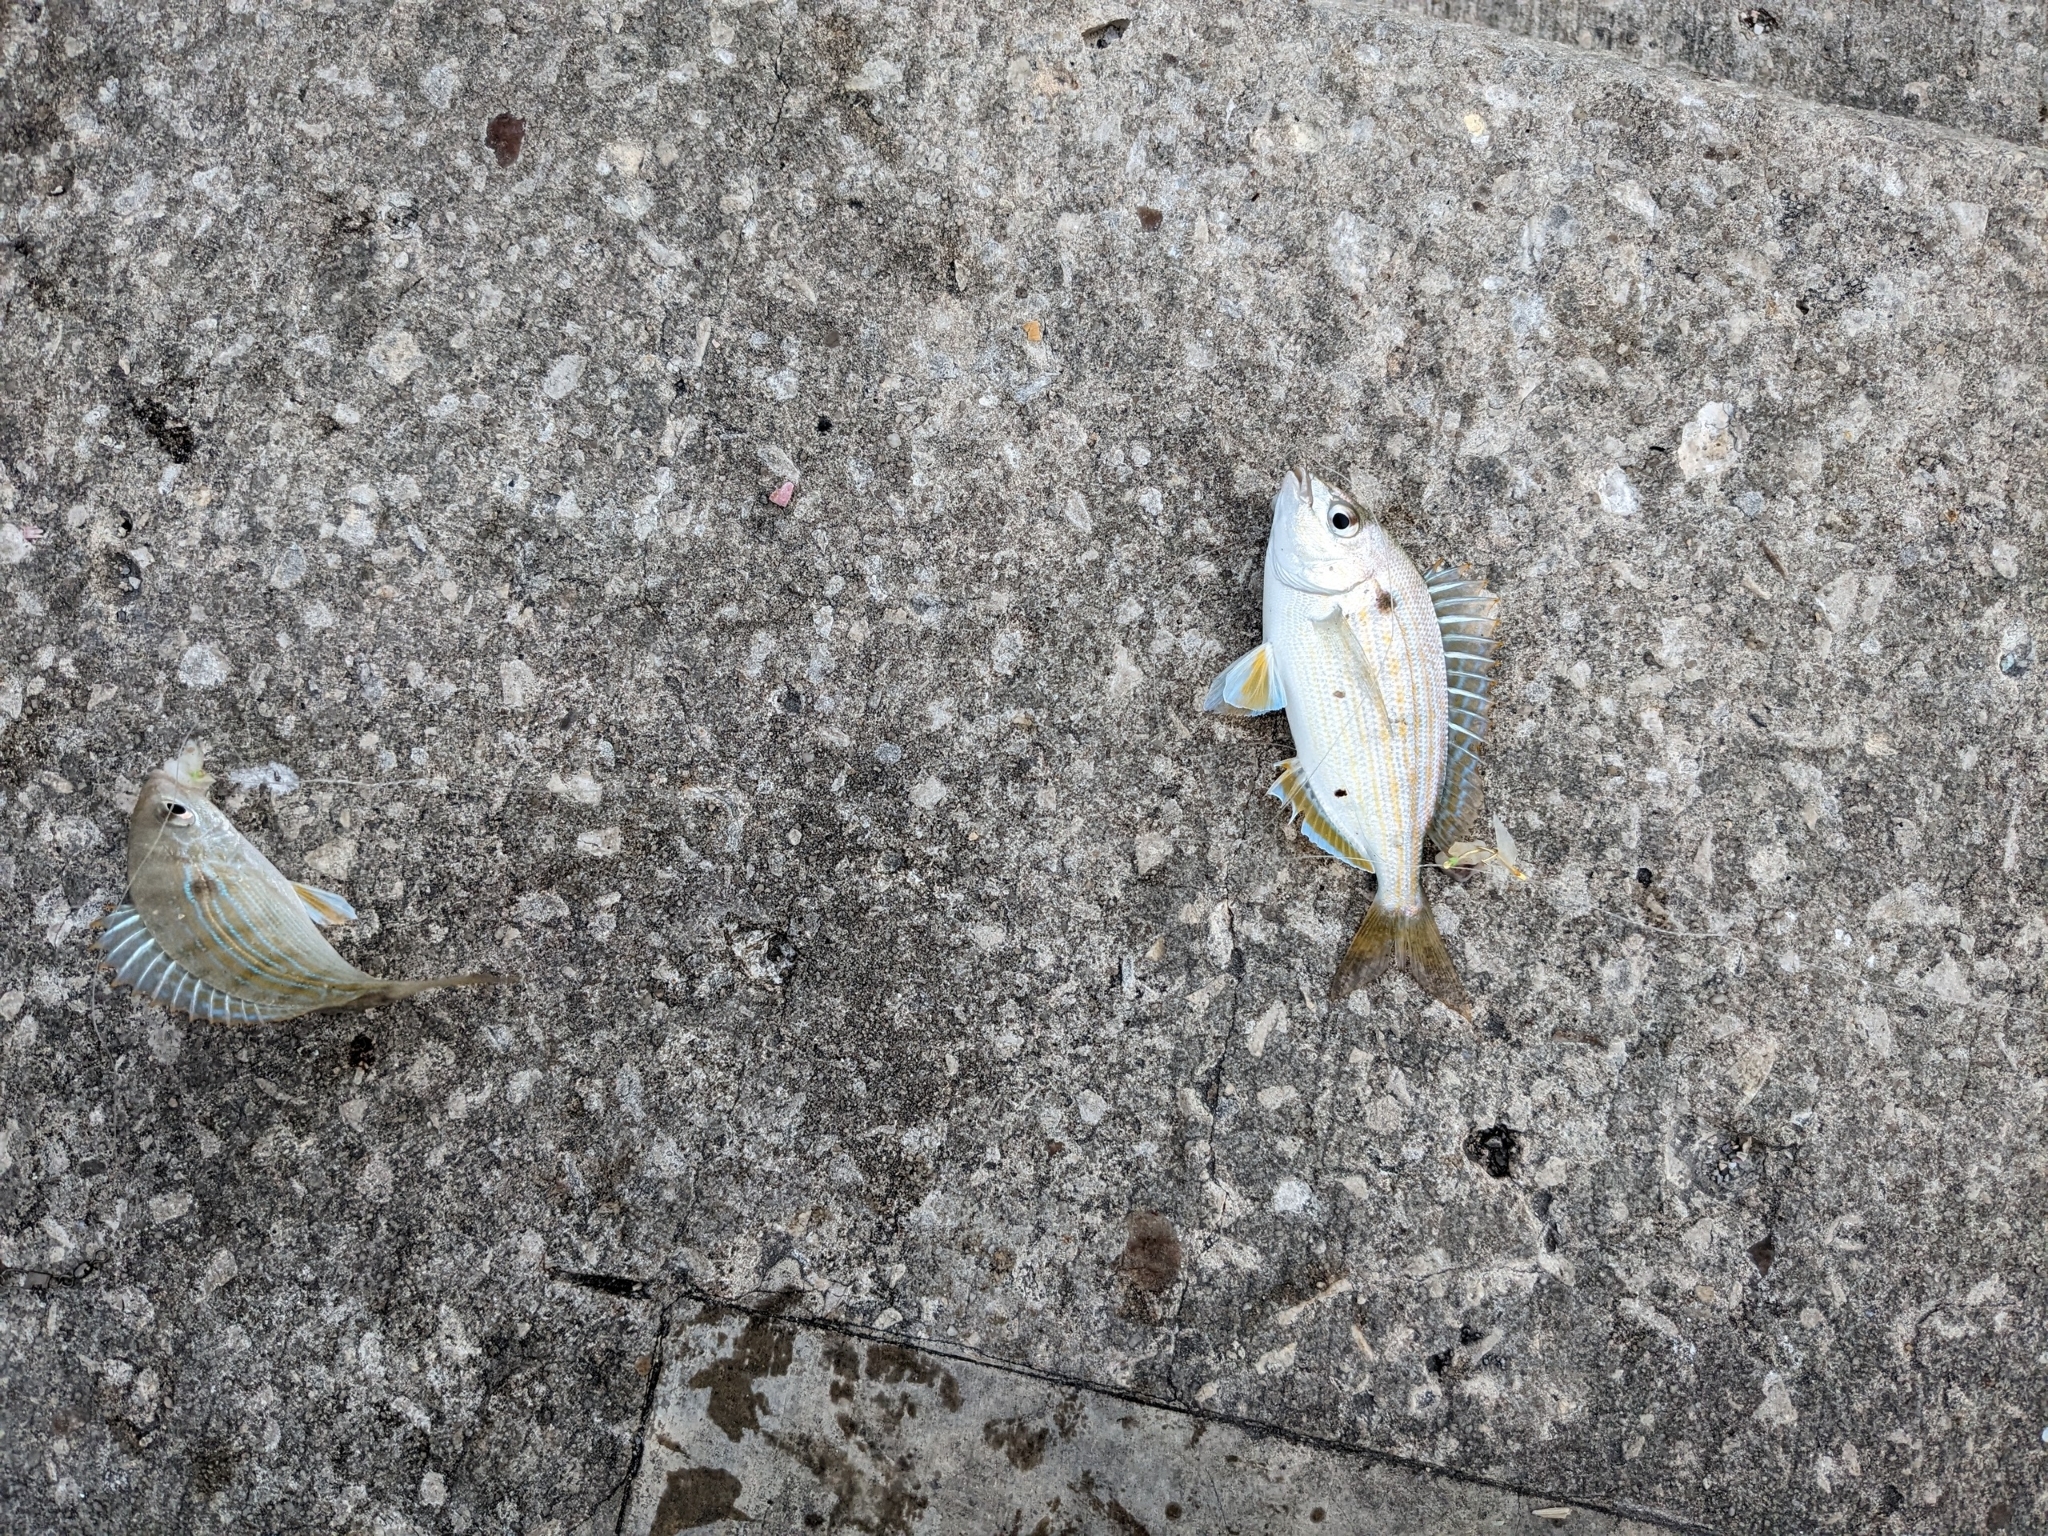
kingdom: Animalia
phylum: Chordata
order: Perciformes
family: Sparidae
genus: Lagodon
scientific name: Lagodon rhomboides
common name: Pinfish
